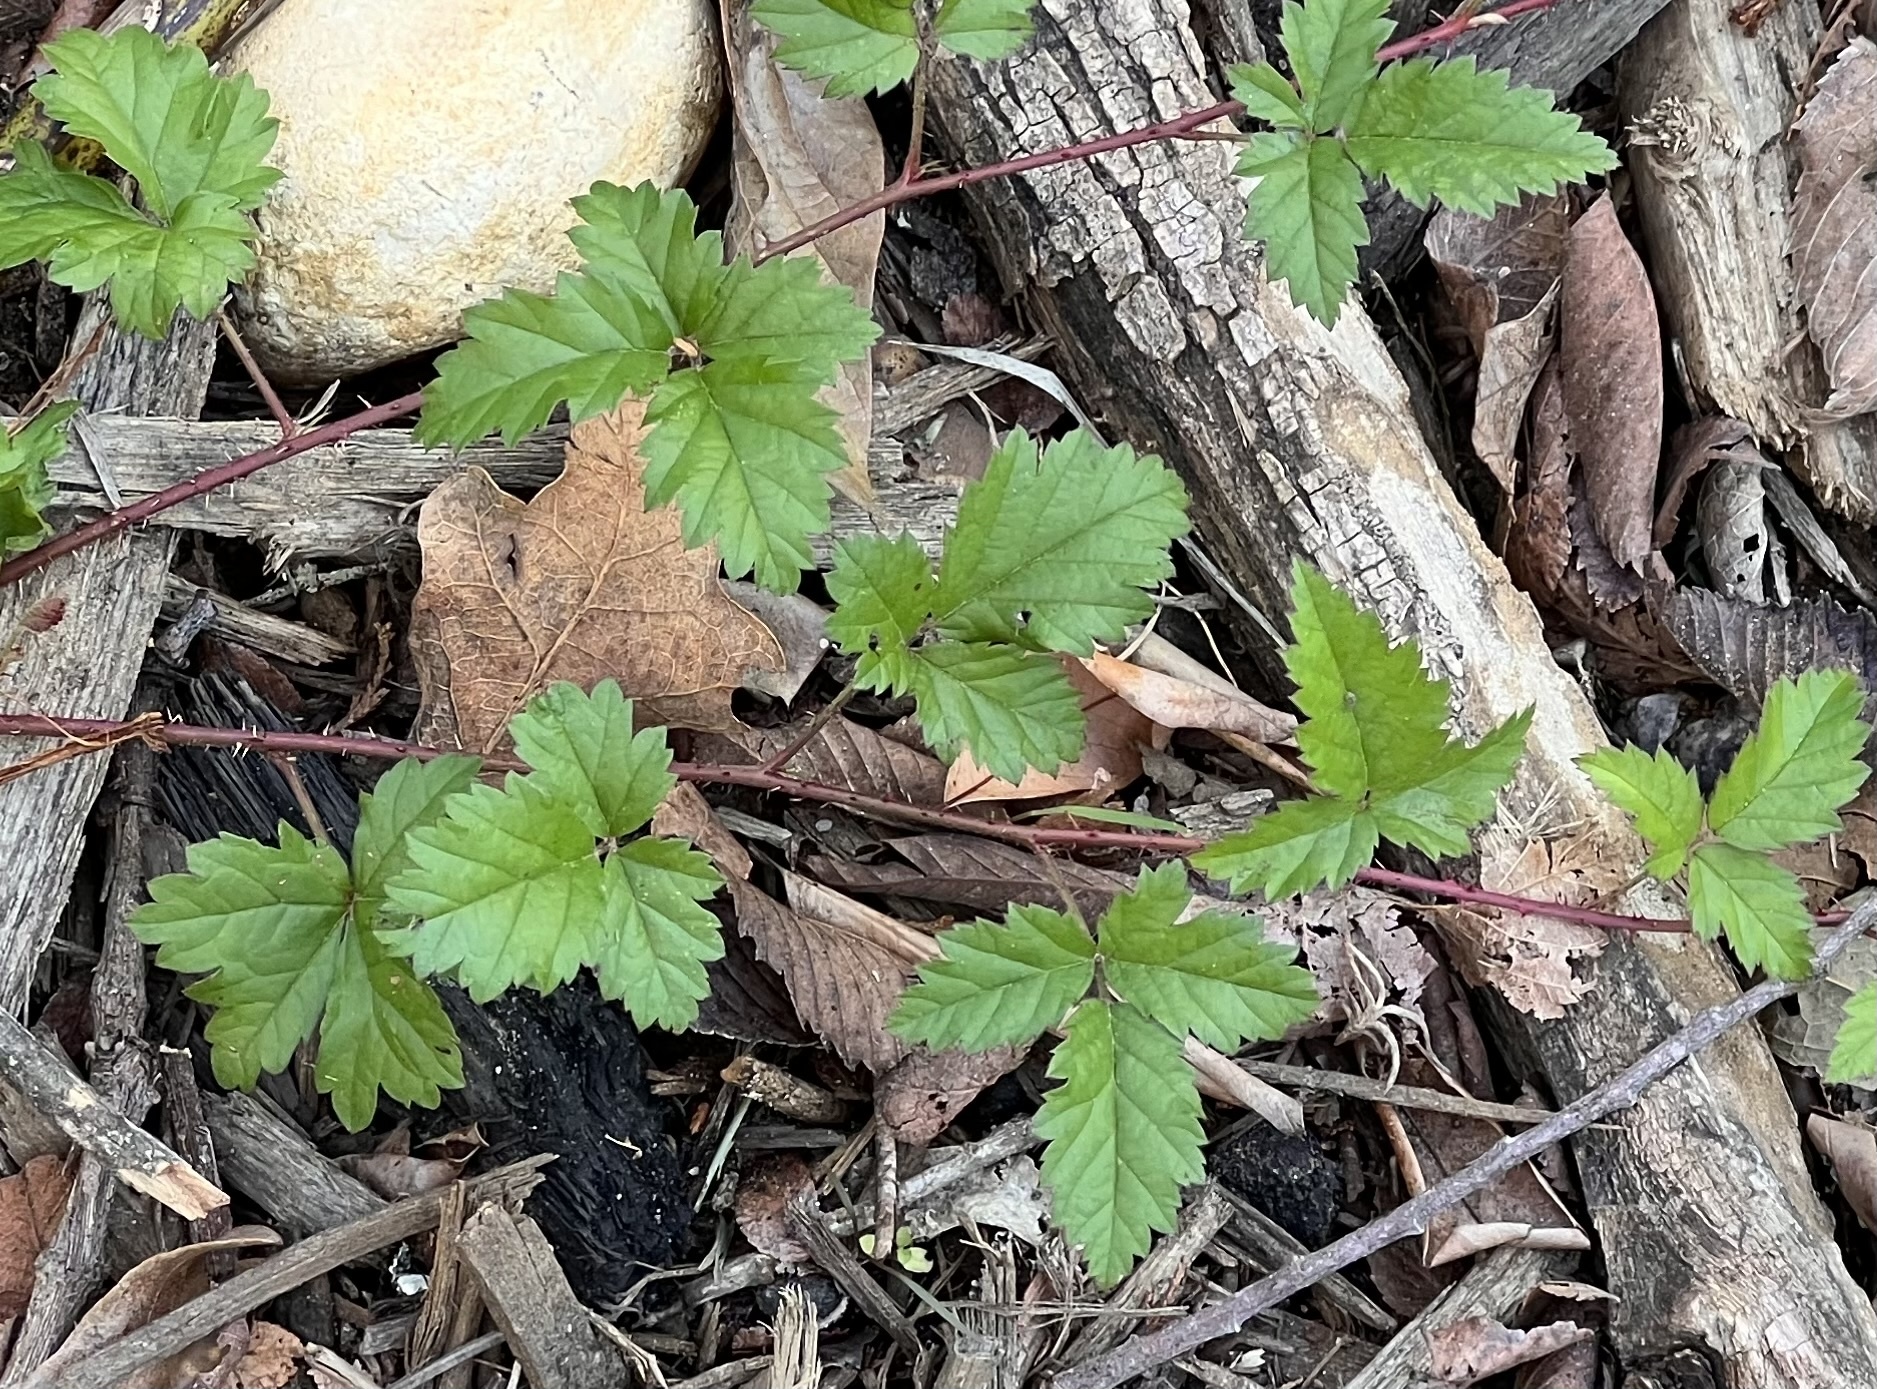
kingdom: Plantae
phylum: Tracheophyta
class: Magnoliopsida
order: Rosales
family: Rosaceae
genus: Rubus
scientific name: Rubus trivialis
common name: Southern dewberry
